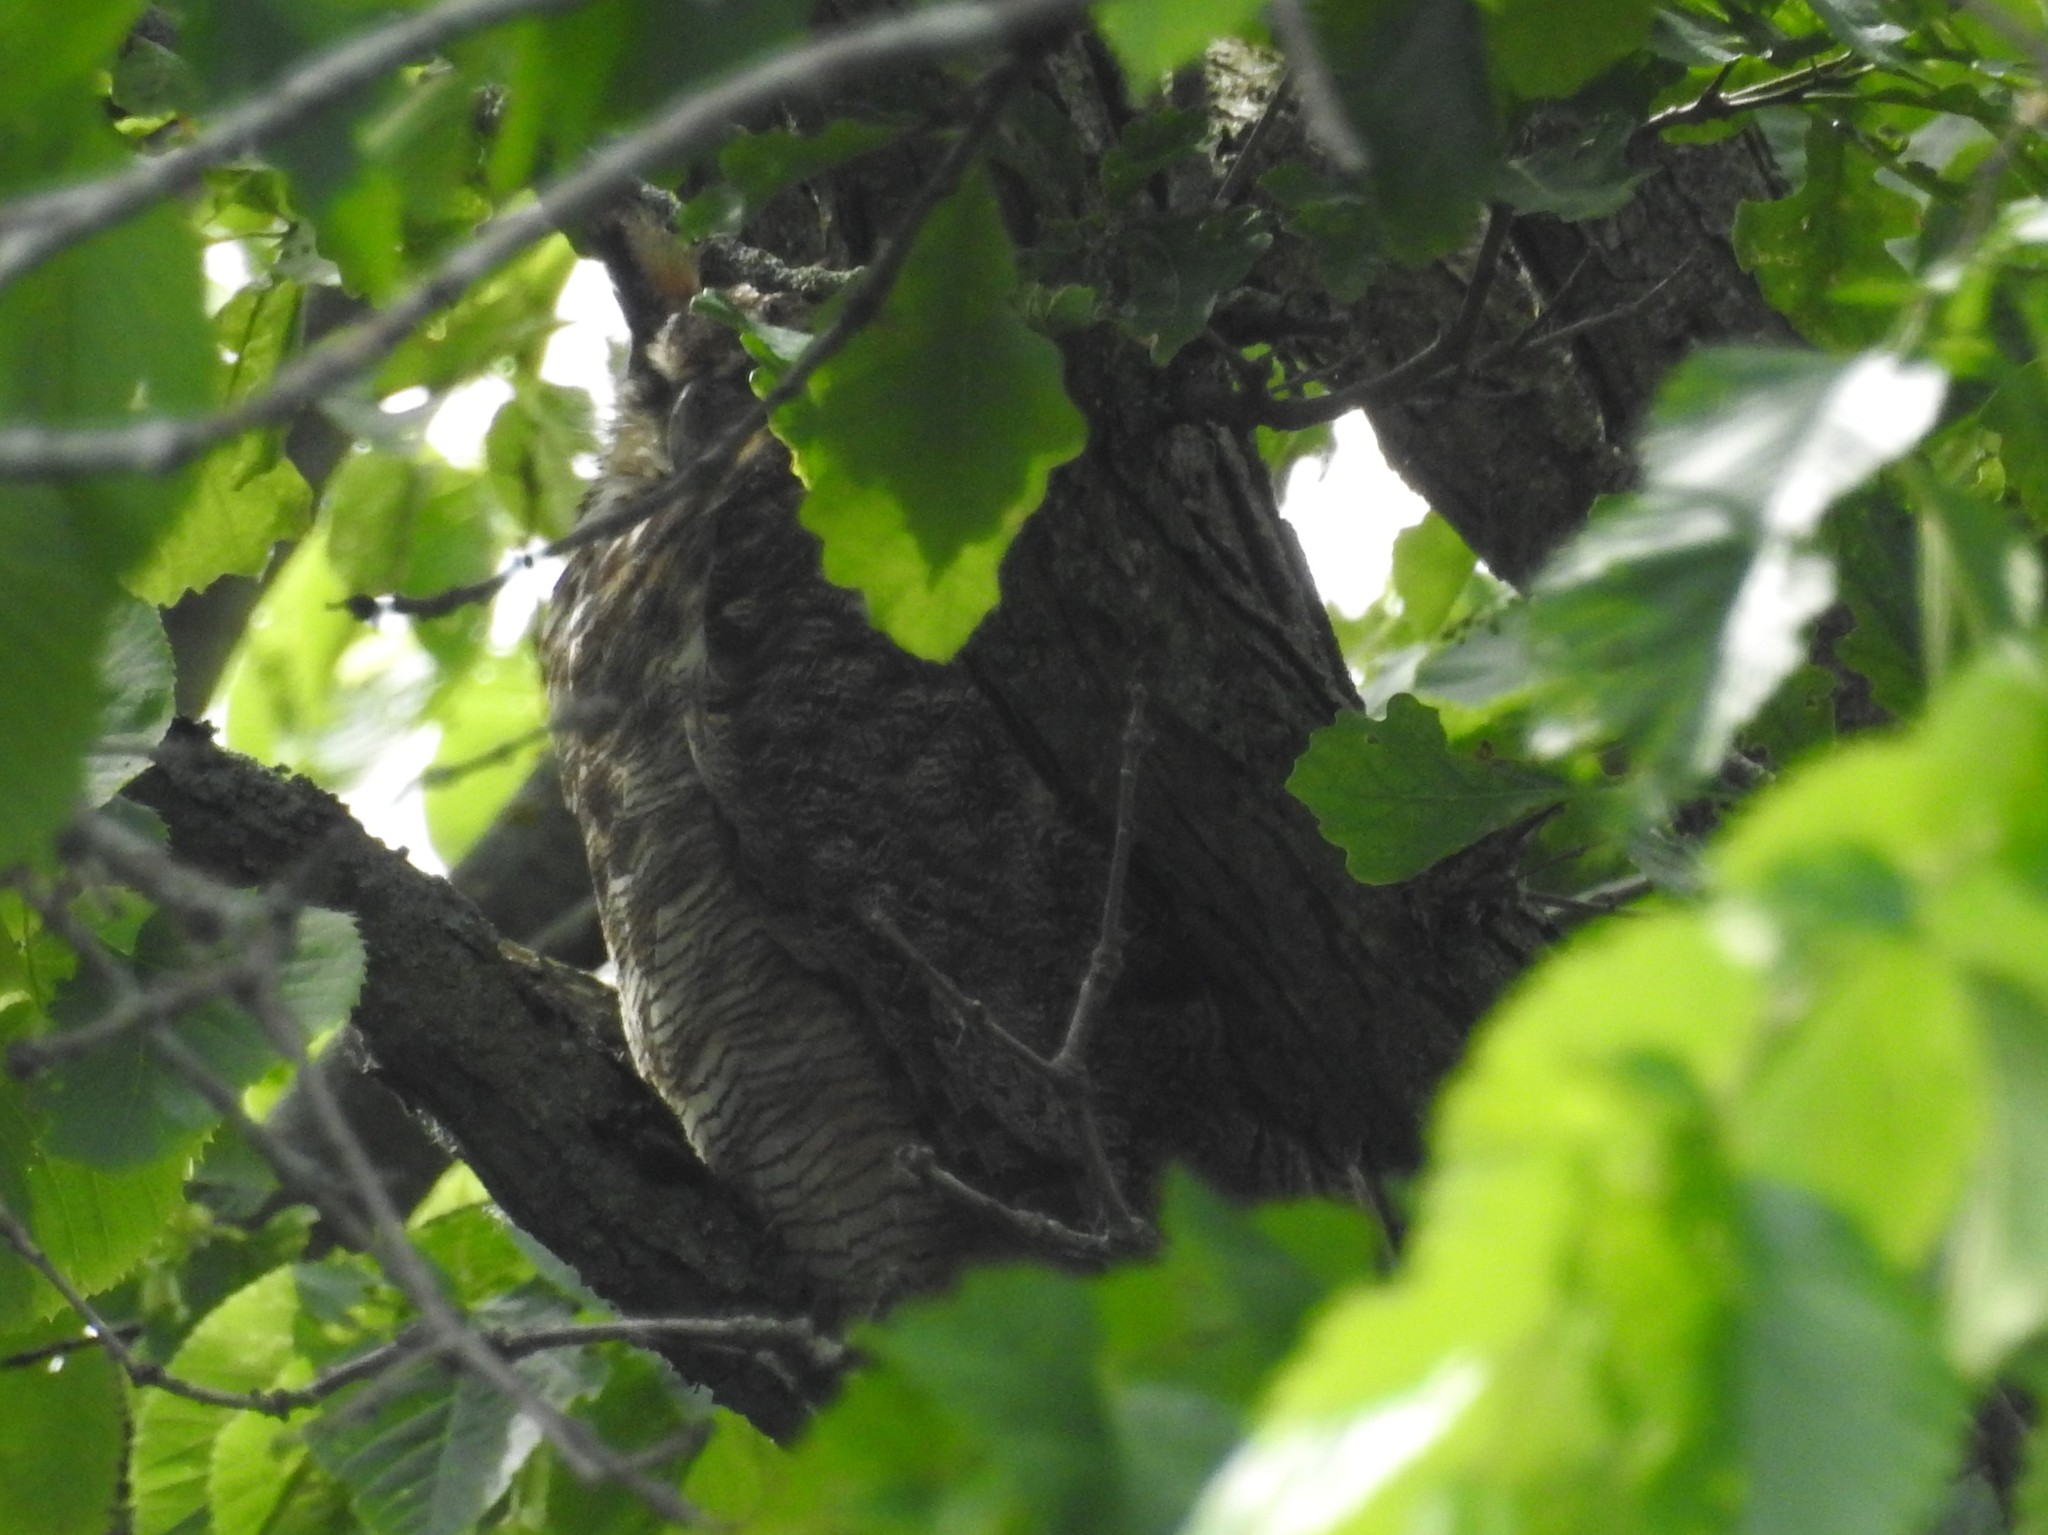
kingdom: Animalia
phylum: Chordata
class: Aves
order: Strigiformes
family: Strigidae
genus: Bubo
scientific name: Bubo virginianus
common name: Great horned owl
